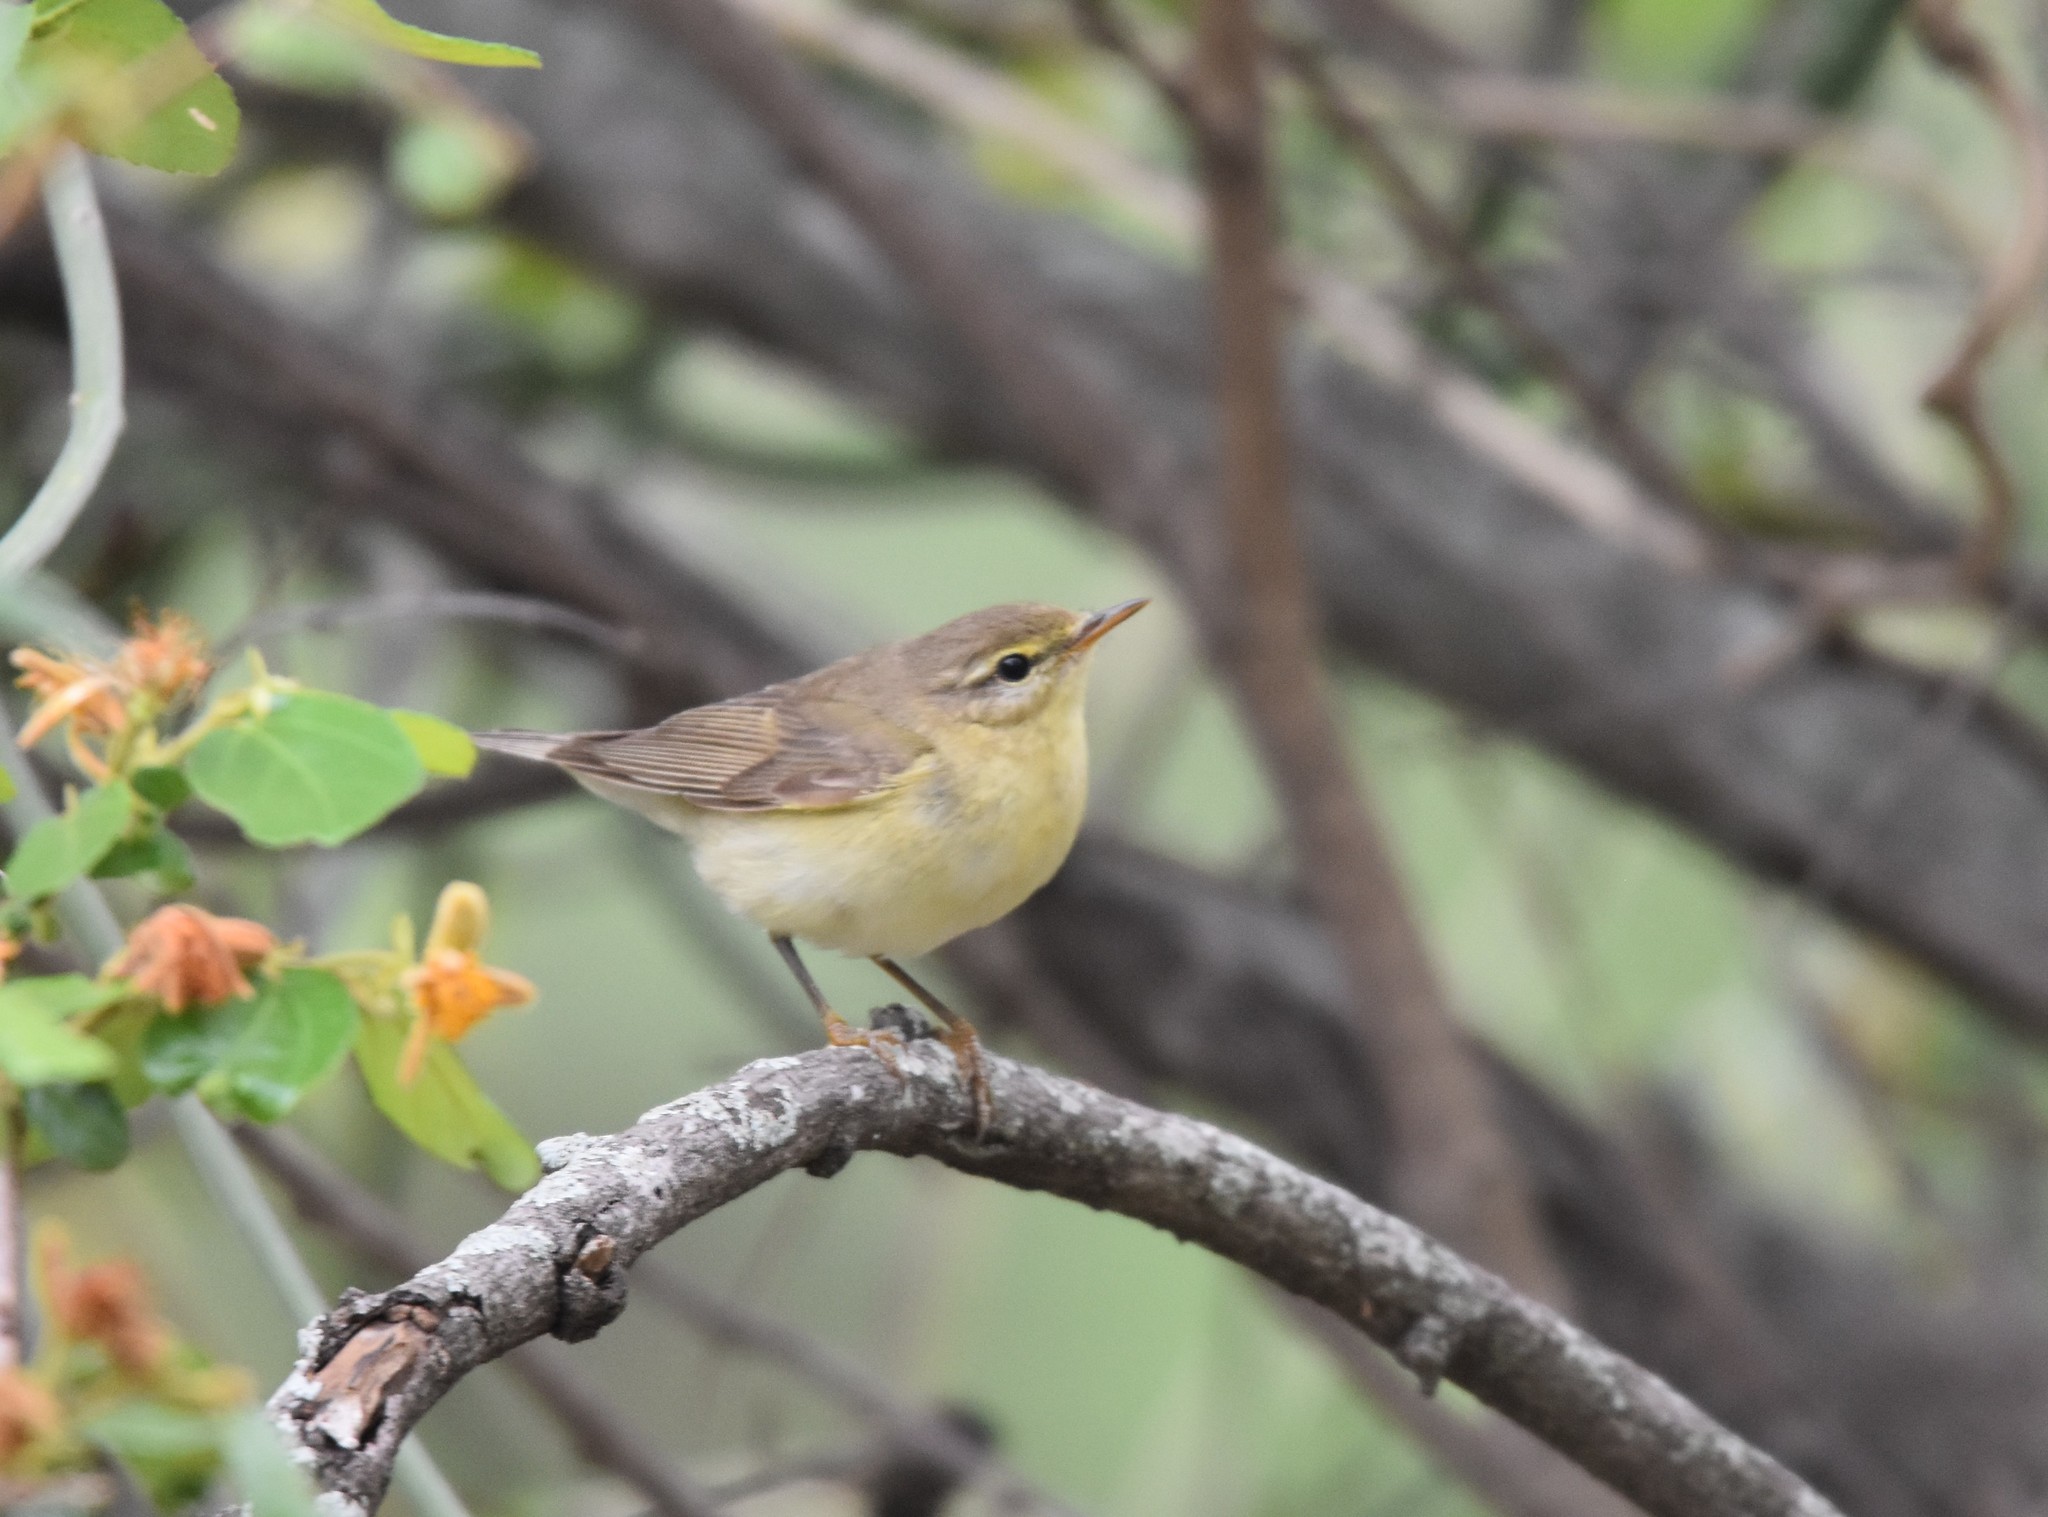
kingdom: Animalia
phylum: Chordata
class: Aves
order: Passeriformes
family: Phylloscopidae
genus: Phylloscopus
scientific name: Phylloscopus trochilus
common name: Willow warbler
